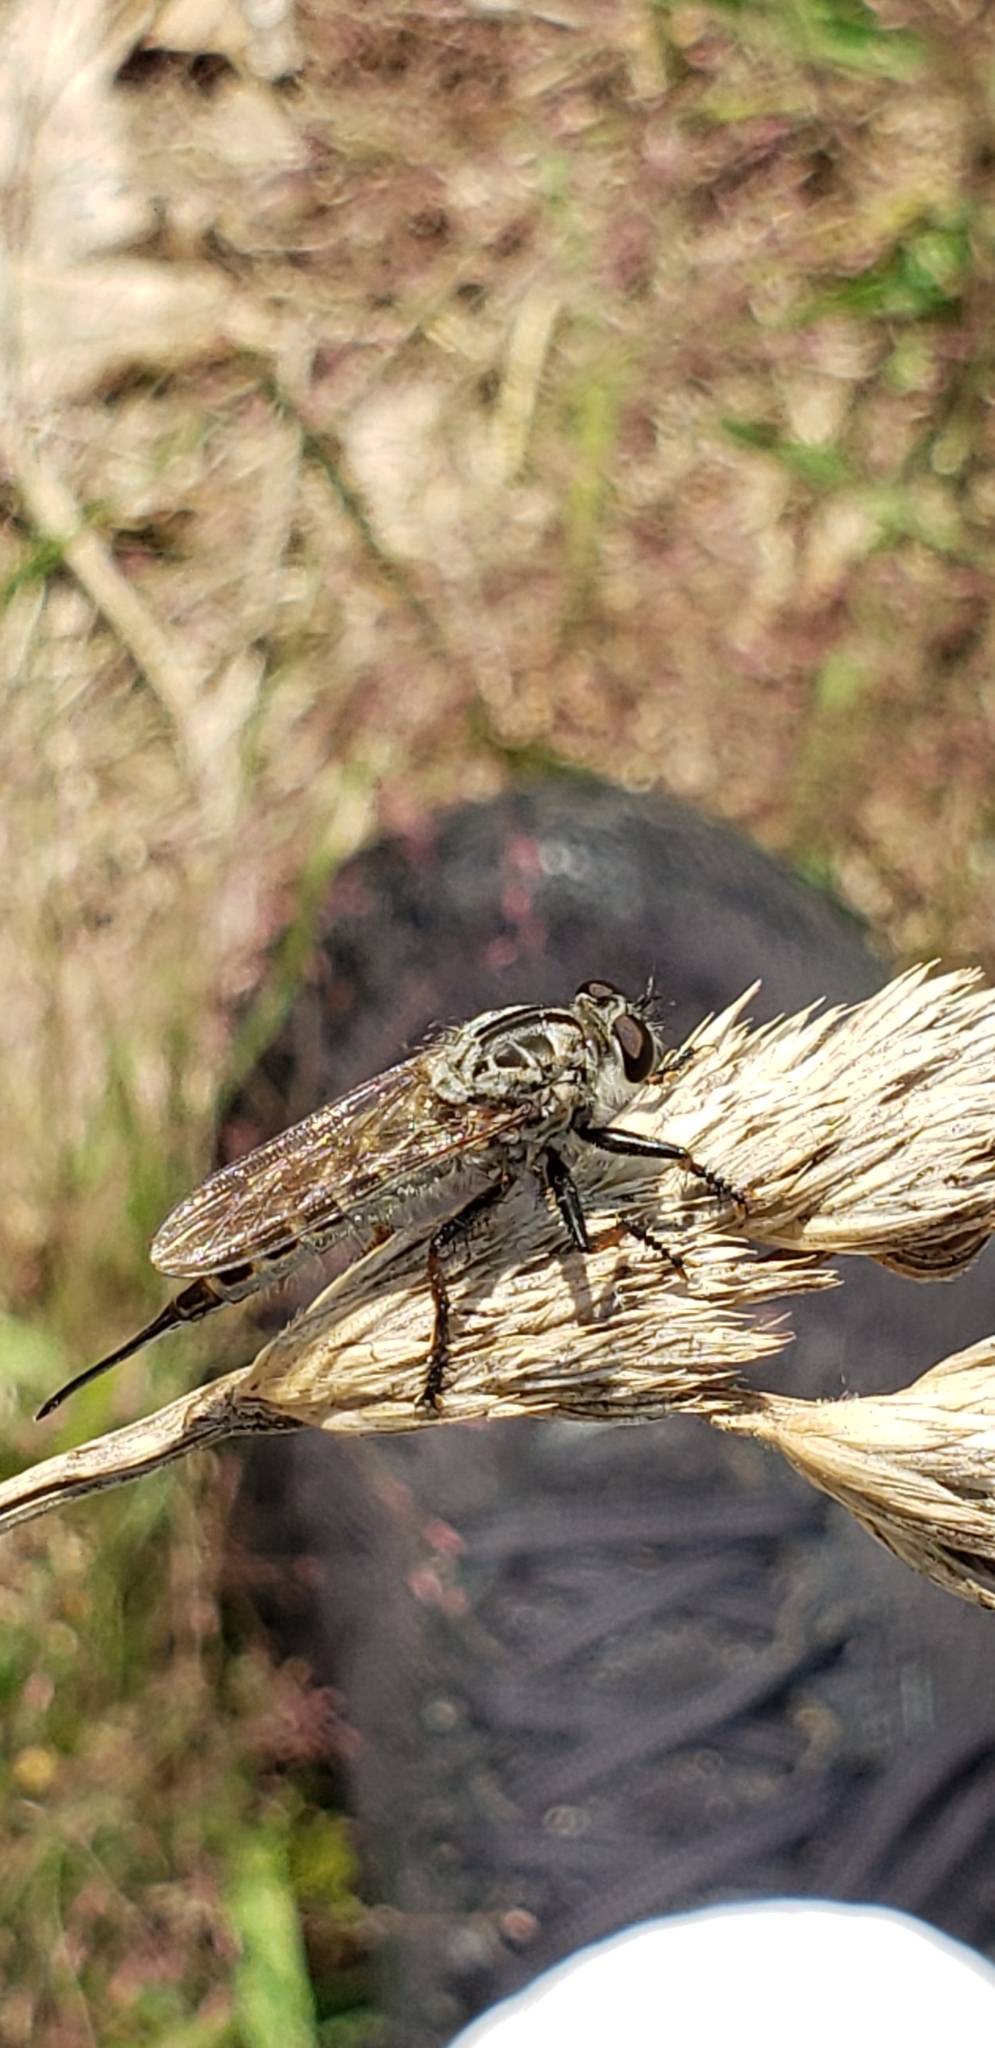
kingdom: Animalia
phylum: Arthropoda
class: Insecta
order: Diptera
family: Asilidae
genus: Efferia
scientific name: Efferia aestuans
